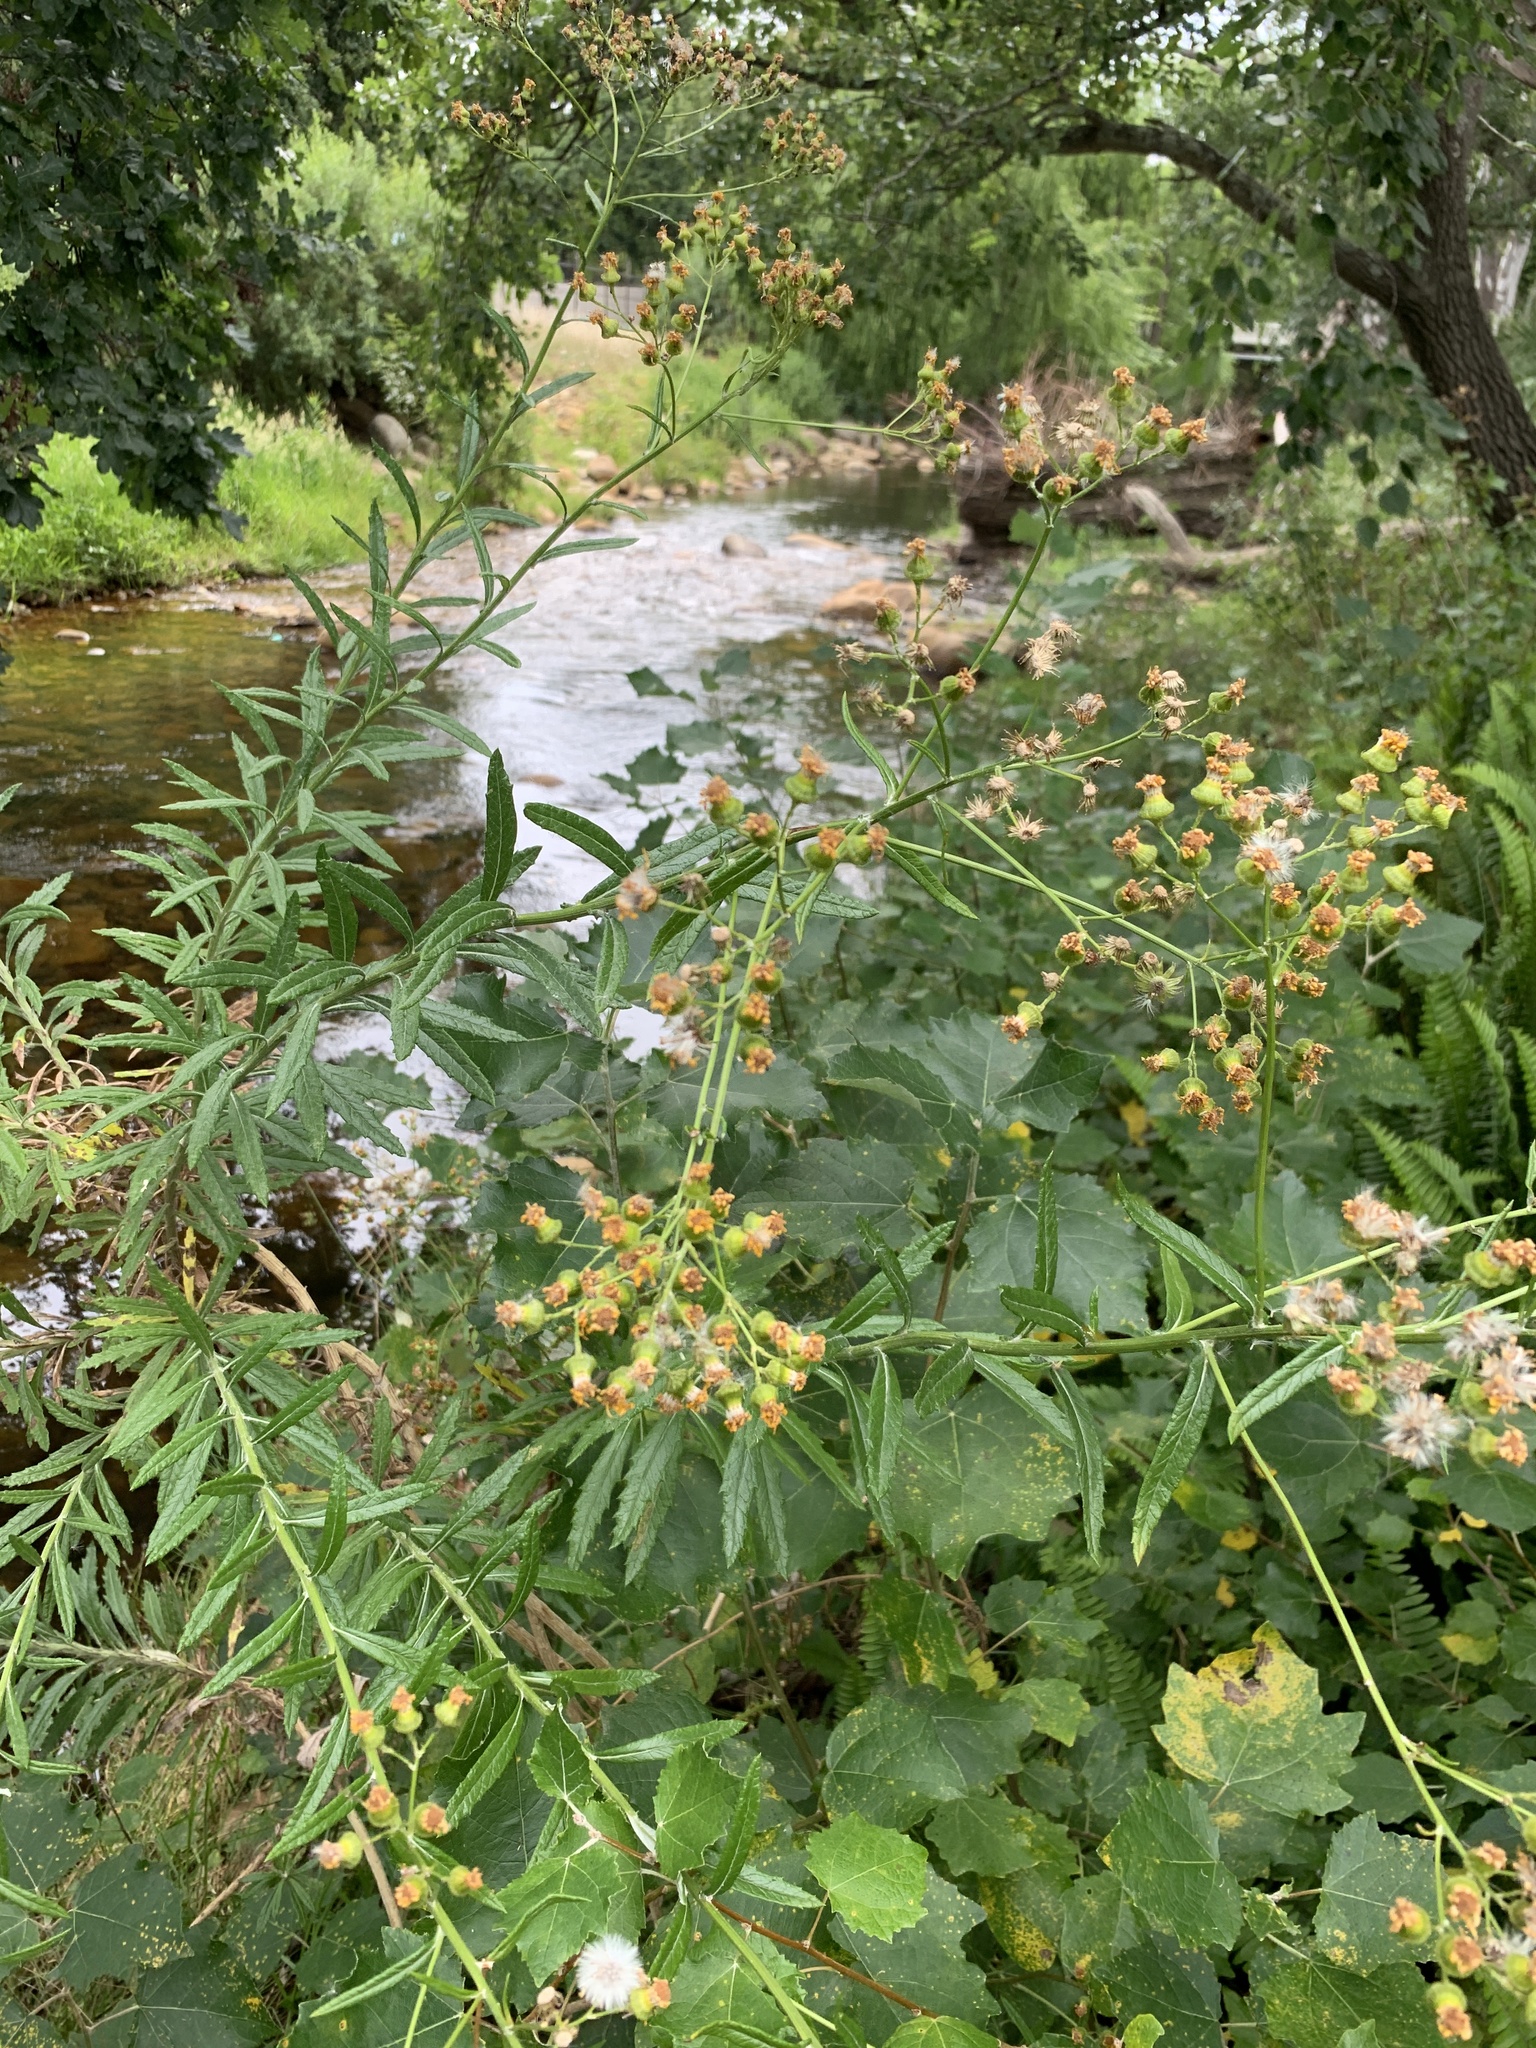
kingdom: Plantae
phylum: Tracheophyta
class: Magnoliopsida
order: Asterales
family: Asteraceae
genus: Senecio
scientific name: Senecio pterophorus
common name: Shoddy ragwort
